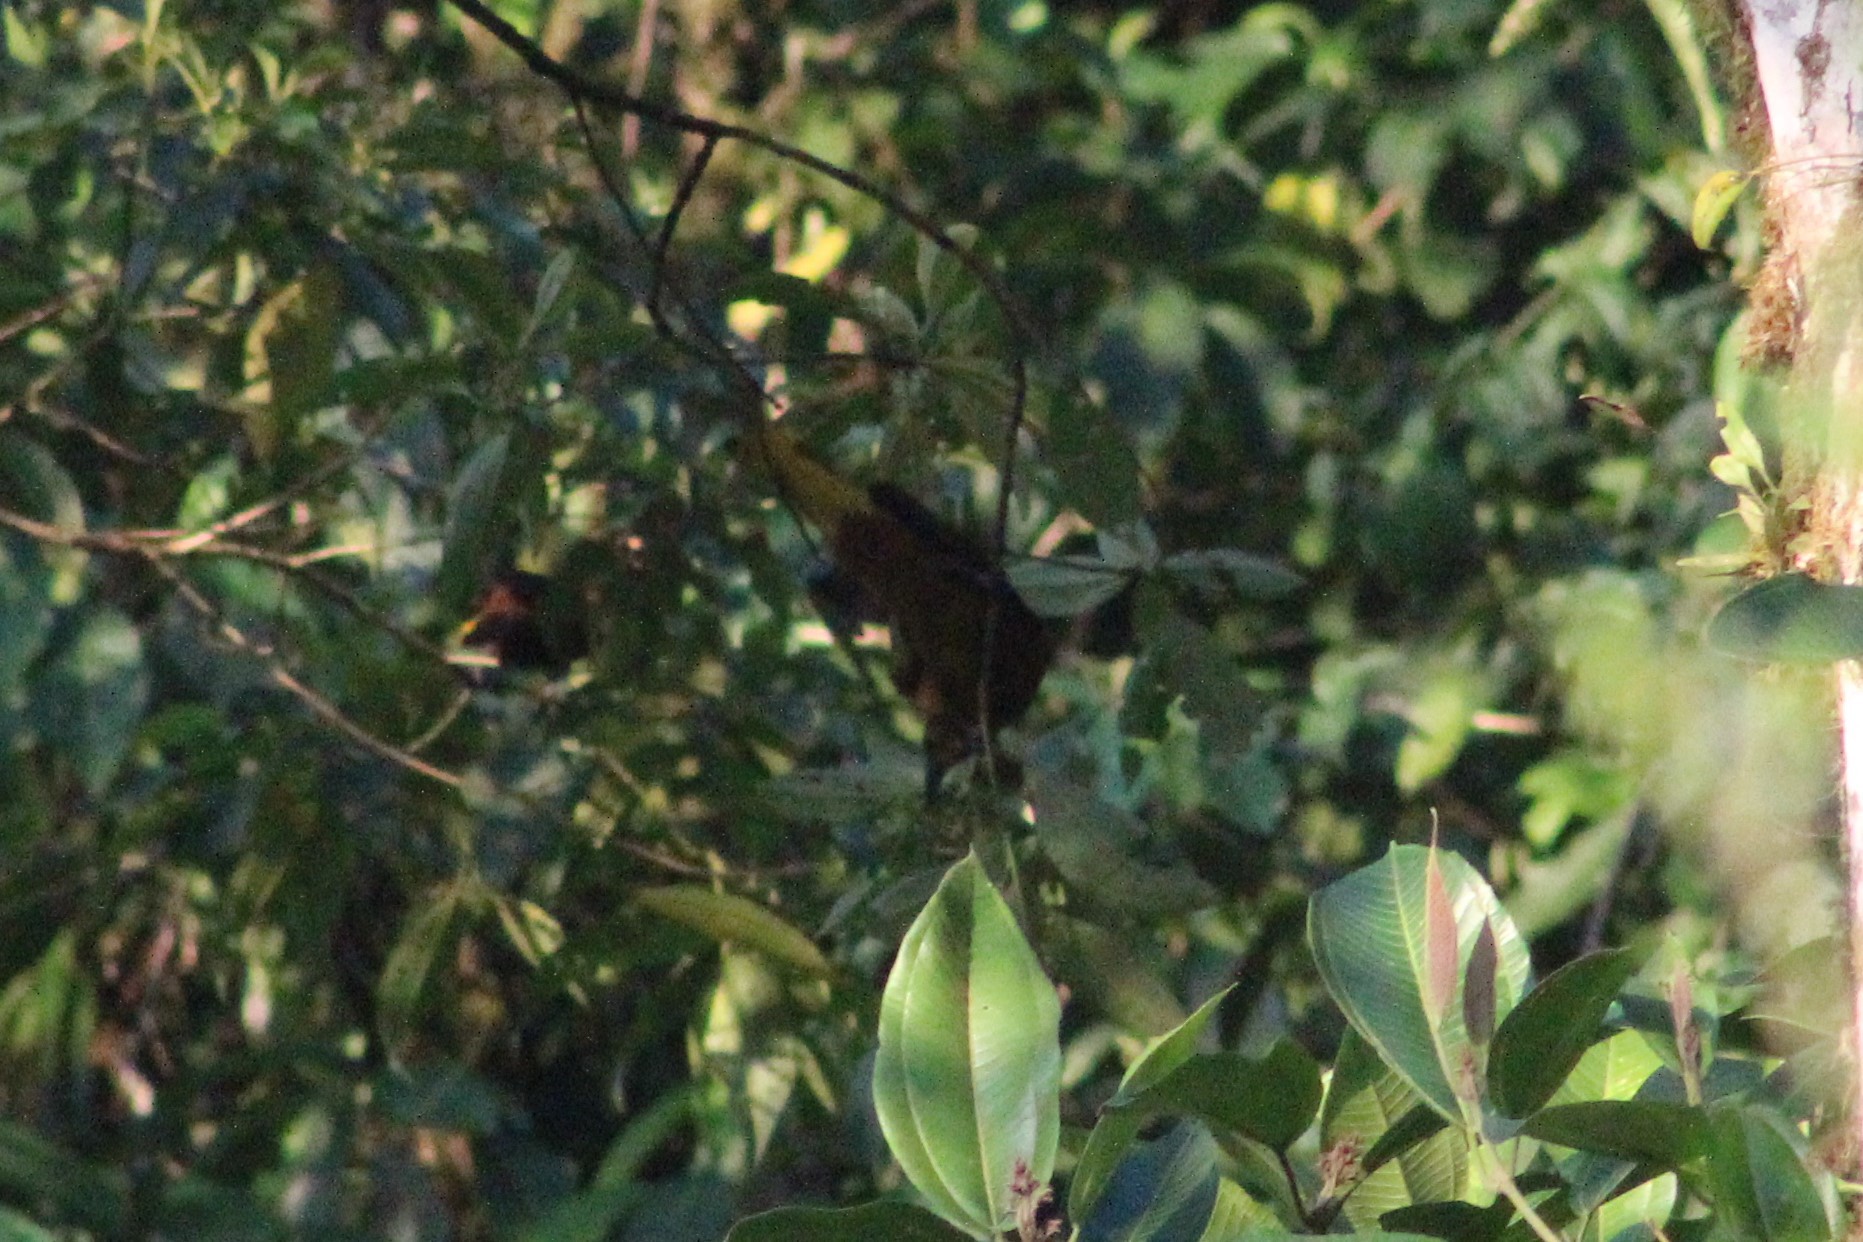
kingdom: Animalia
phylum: Chordata
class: Aves
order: Passeriformes
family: Icteridae
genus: Psarocolius
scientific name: Psarocolius angustifrons
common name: Russet-backed oropendola
